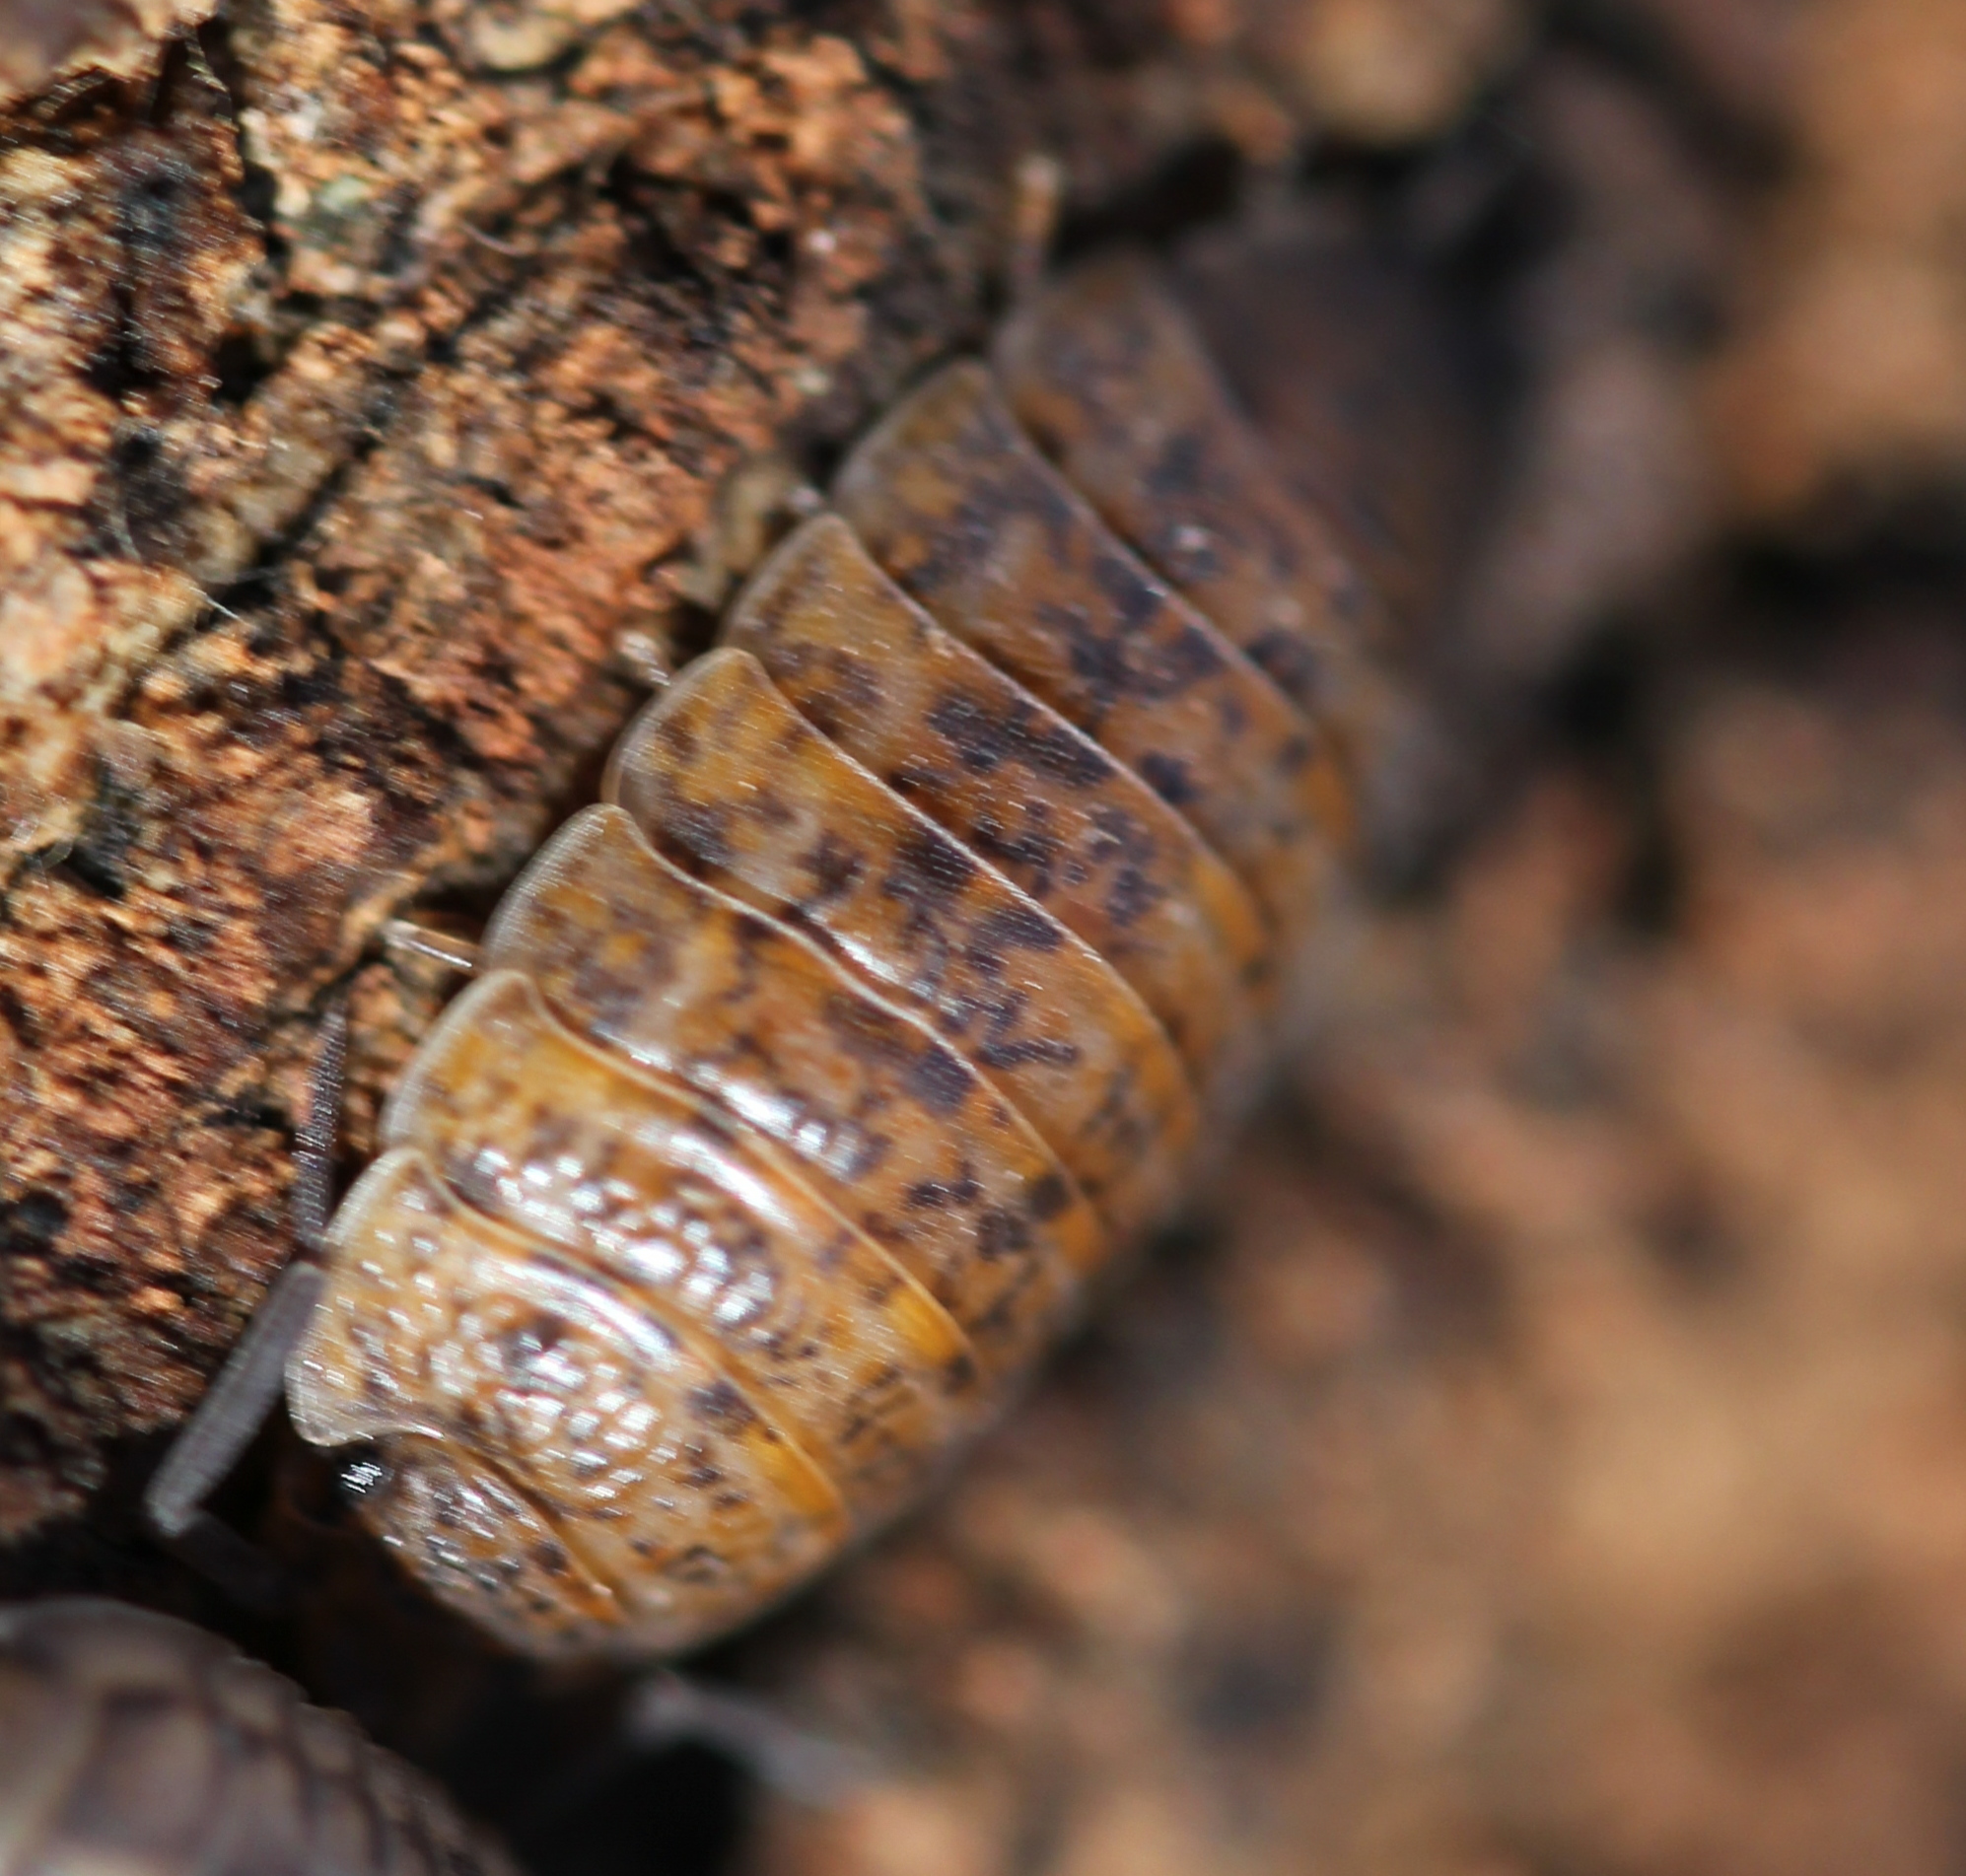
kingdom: Animalia
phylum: Arthropoda
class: Malacostraca
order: Isopoda
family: Trachelipodidae
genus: Trachelipus
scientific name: Trachelipus rathkii
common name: Isopod
